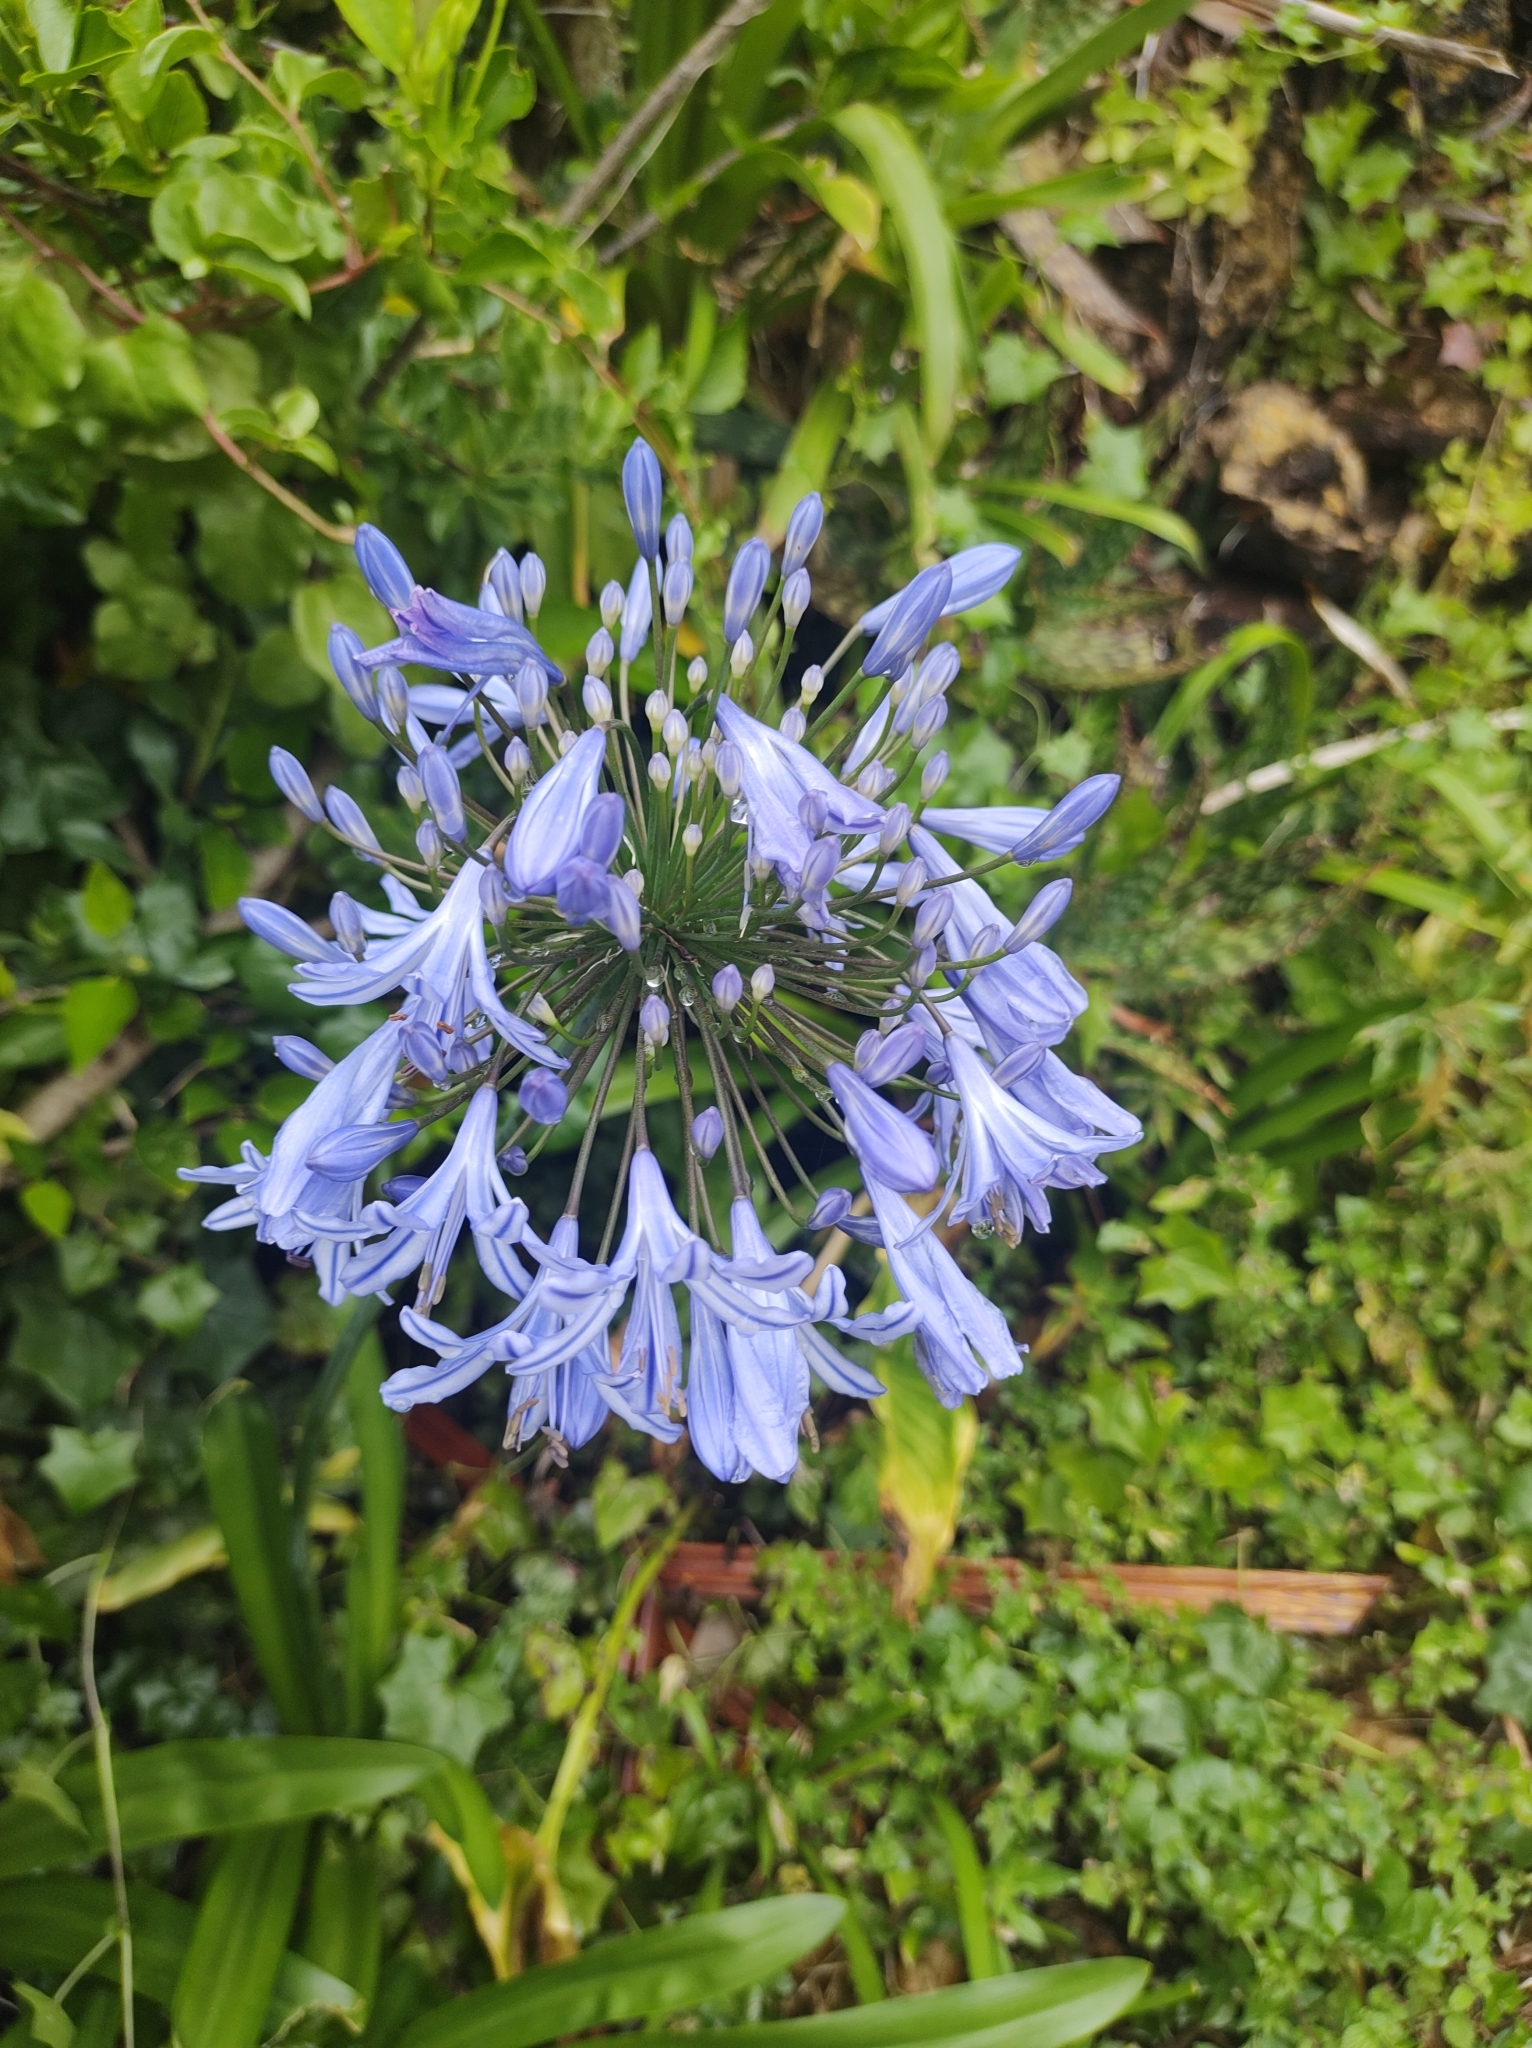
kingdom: Plantae
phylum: Tracheophyta
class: Liliopsida
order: Asparagales
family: Amaryllidaceae
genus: Agapanthus
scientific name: Agapanthus praecox
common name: African-lily
